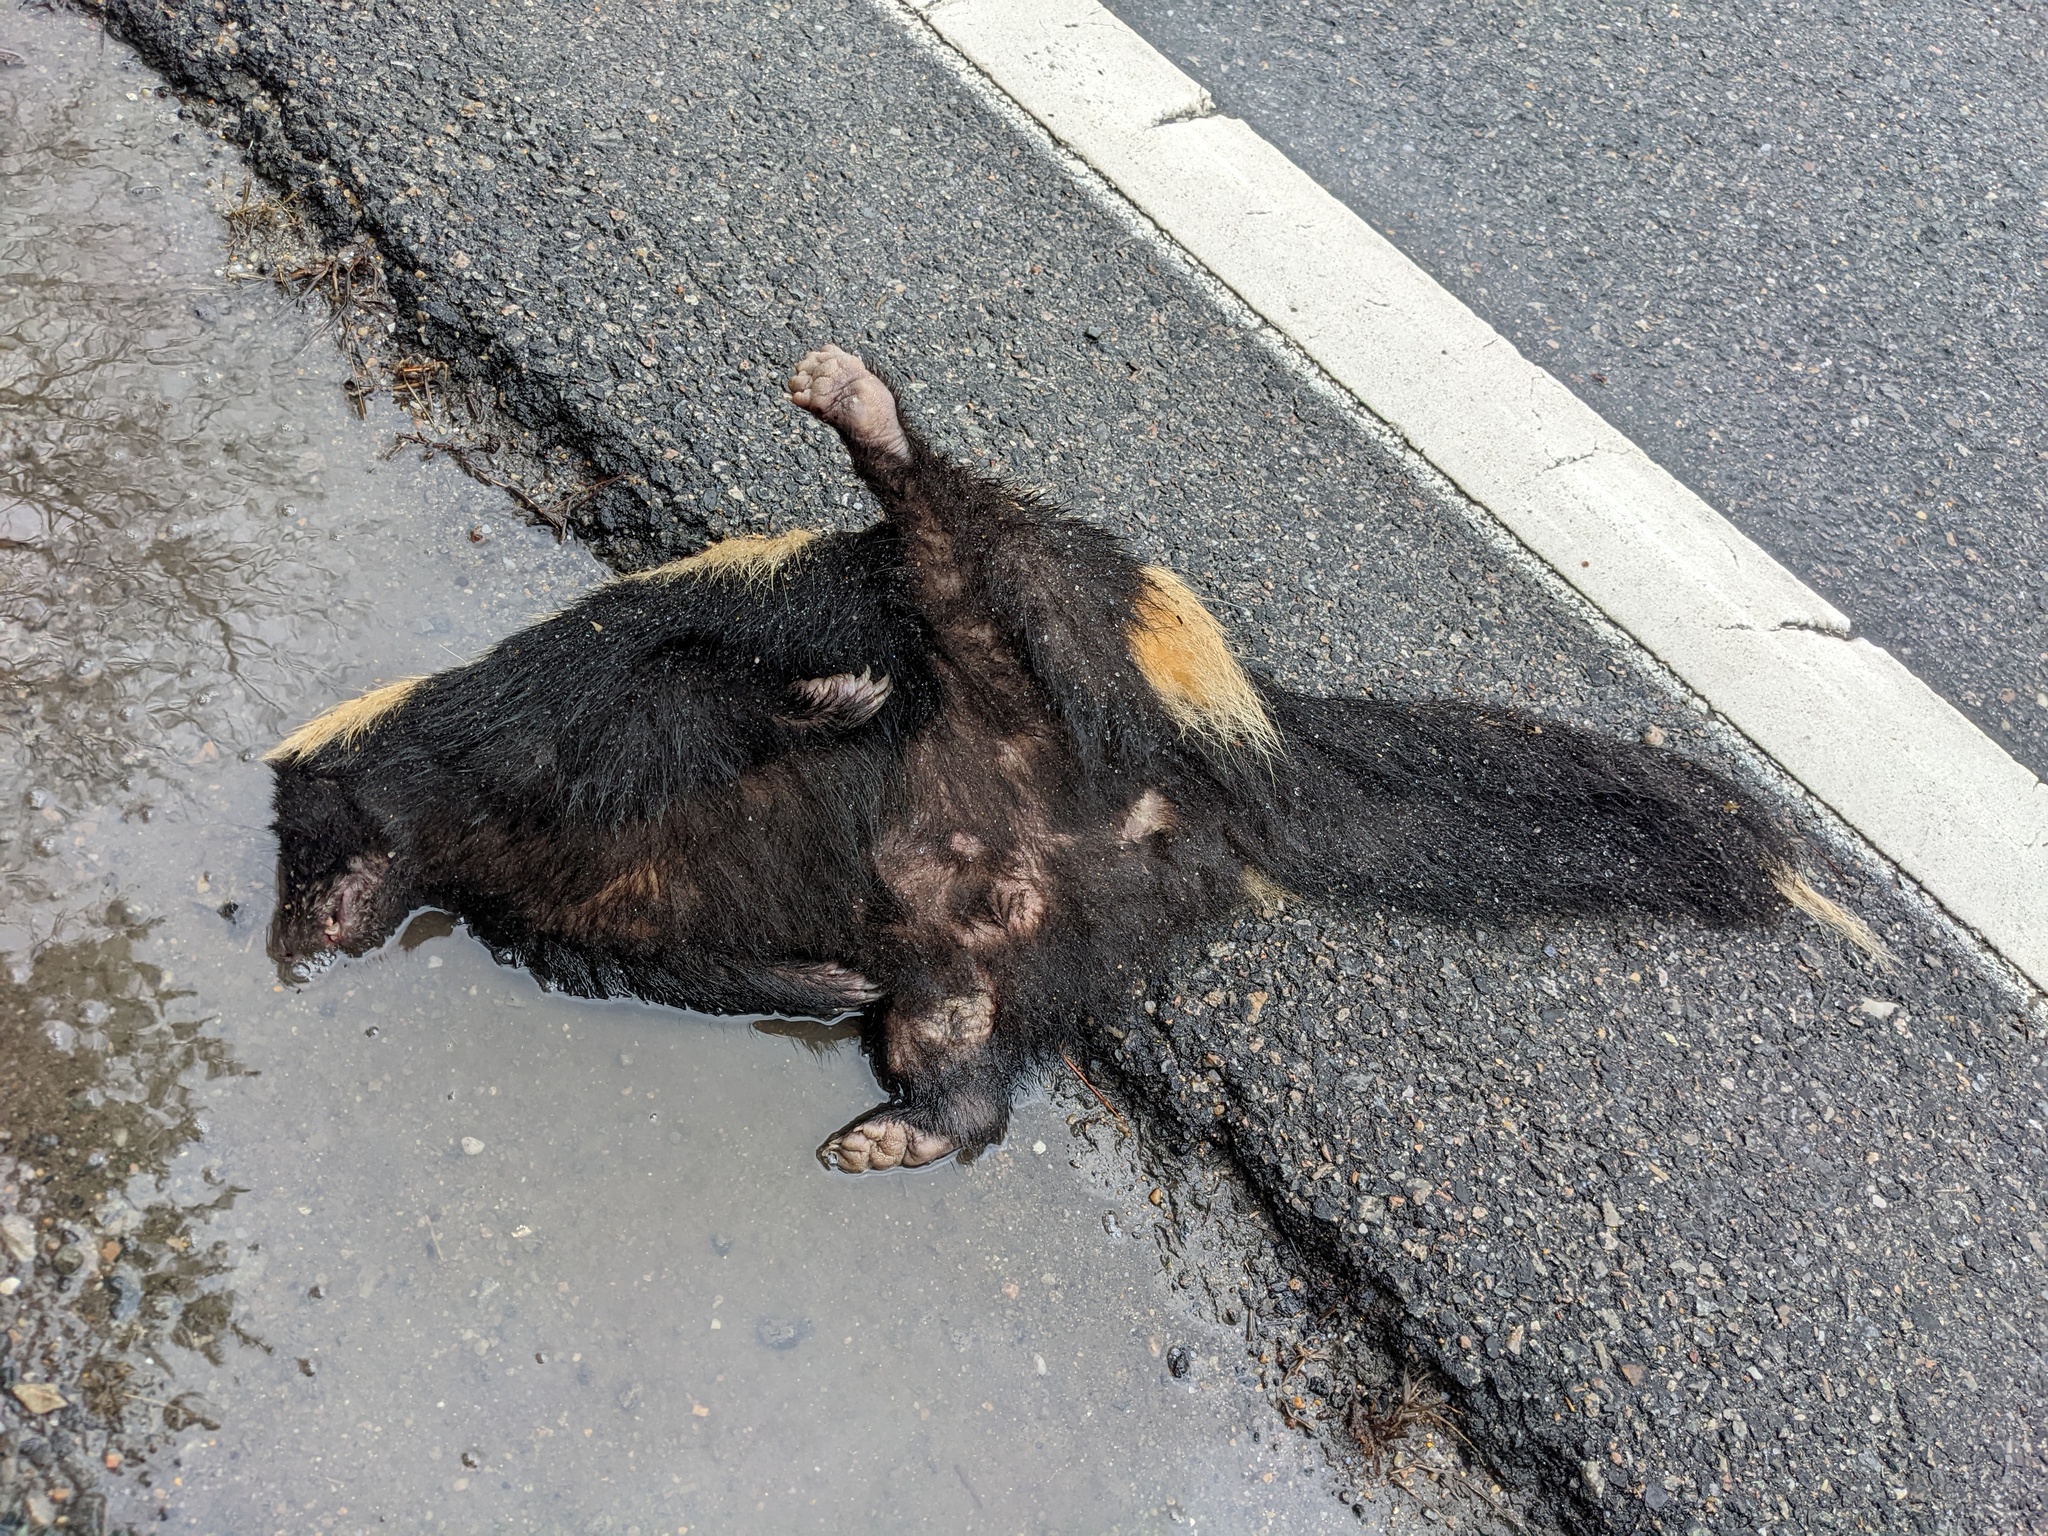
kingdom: Animalia
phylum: Chordata
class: Mammalia
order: Carnivora
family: Mephitidae
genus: Mephitis
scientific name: Mephitis mephitis
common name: Striped skunk
